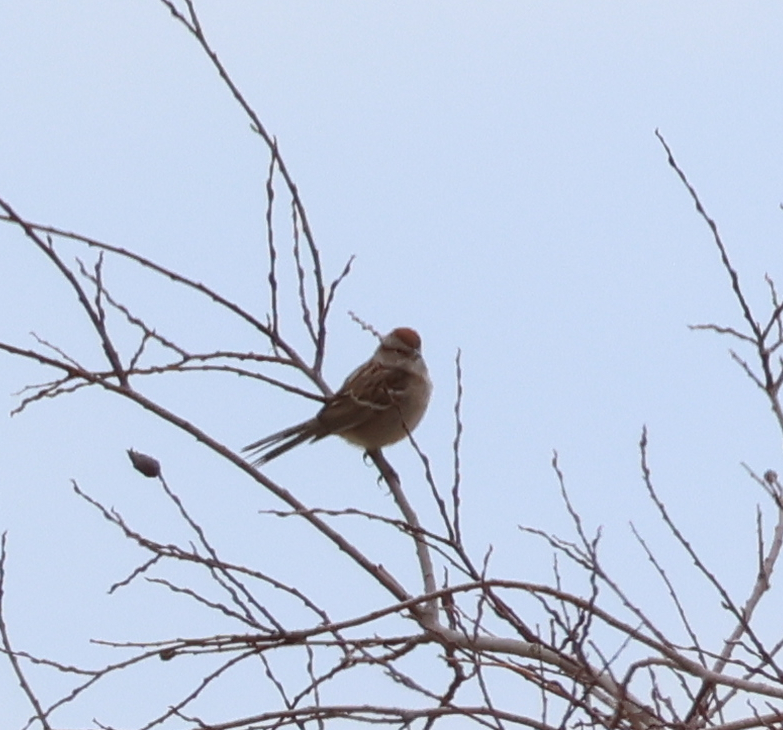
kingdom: Animalia
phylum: Chordata
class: Aves
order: Passeriformes
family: Passerellidae
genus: Spizelloides
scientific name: Spizelloides arborea
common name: American tree sparrow
